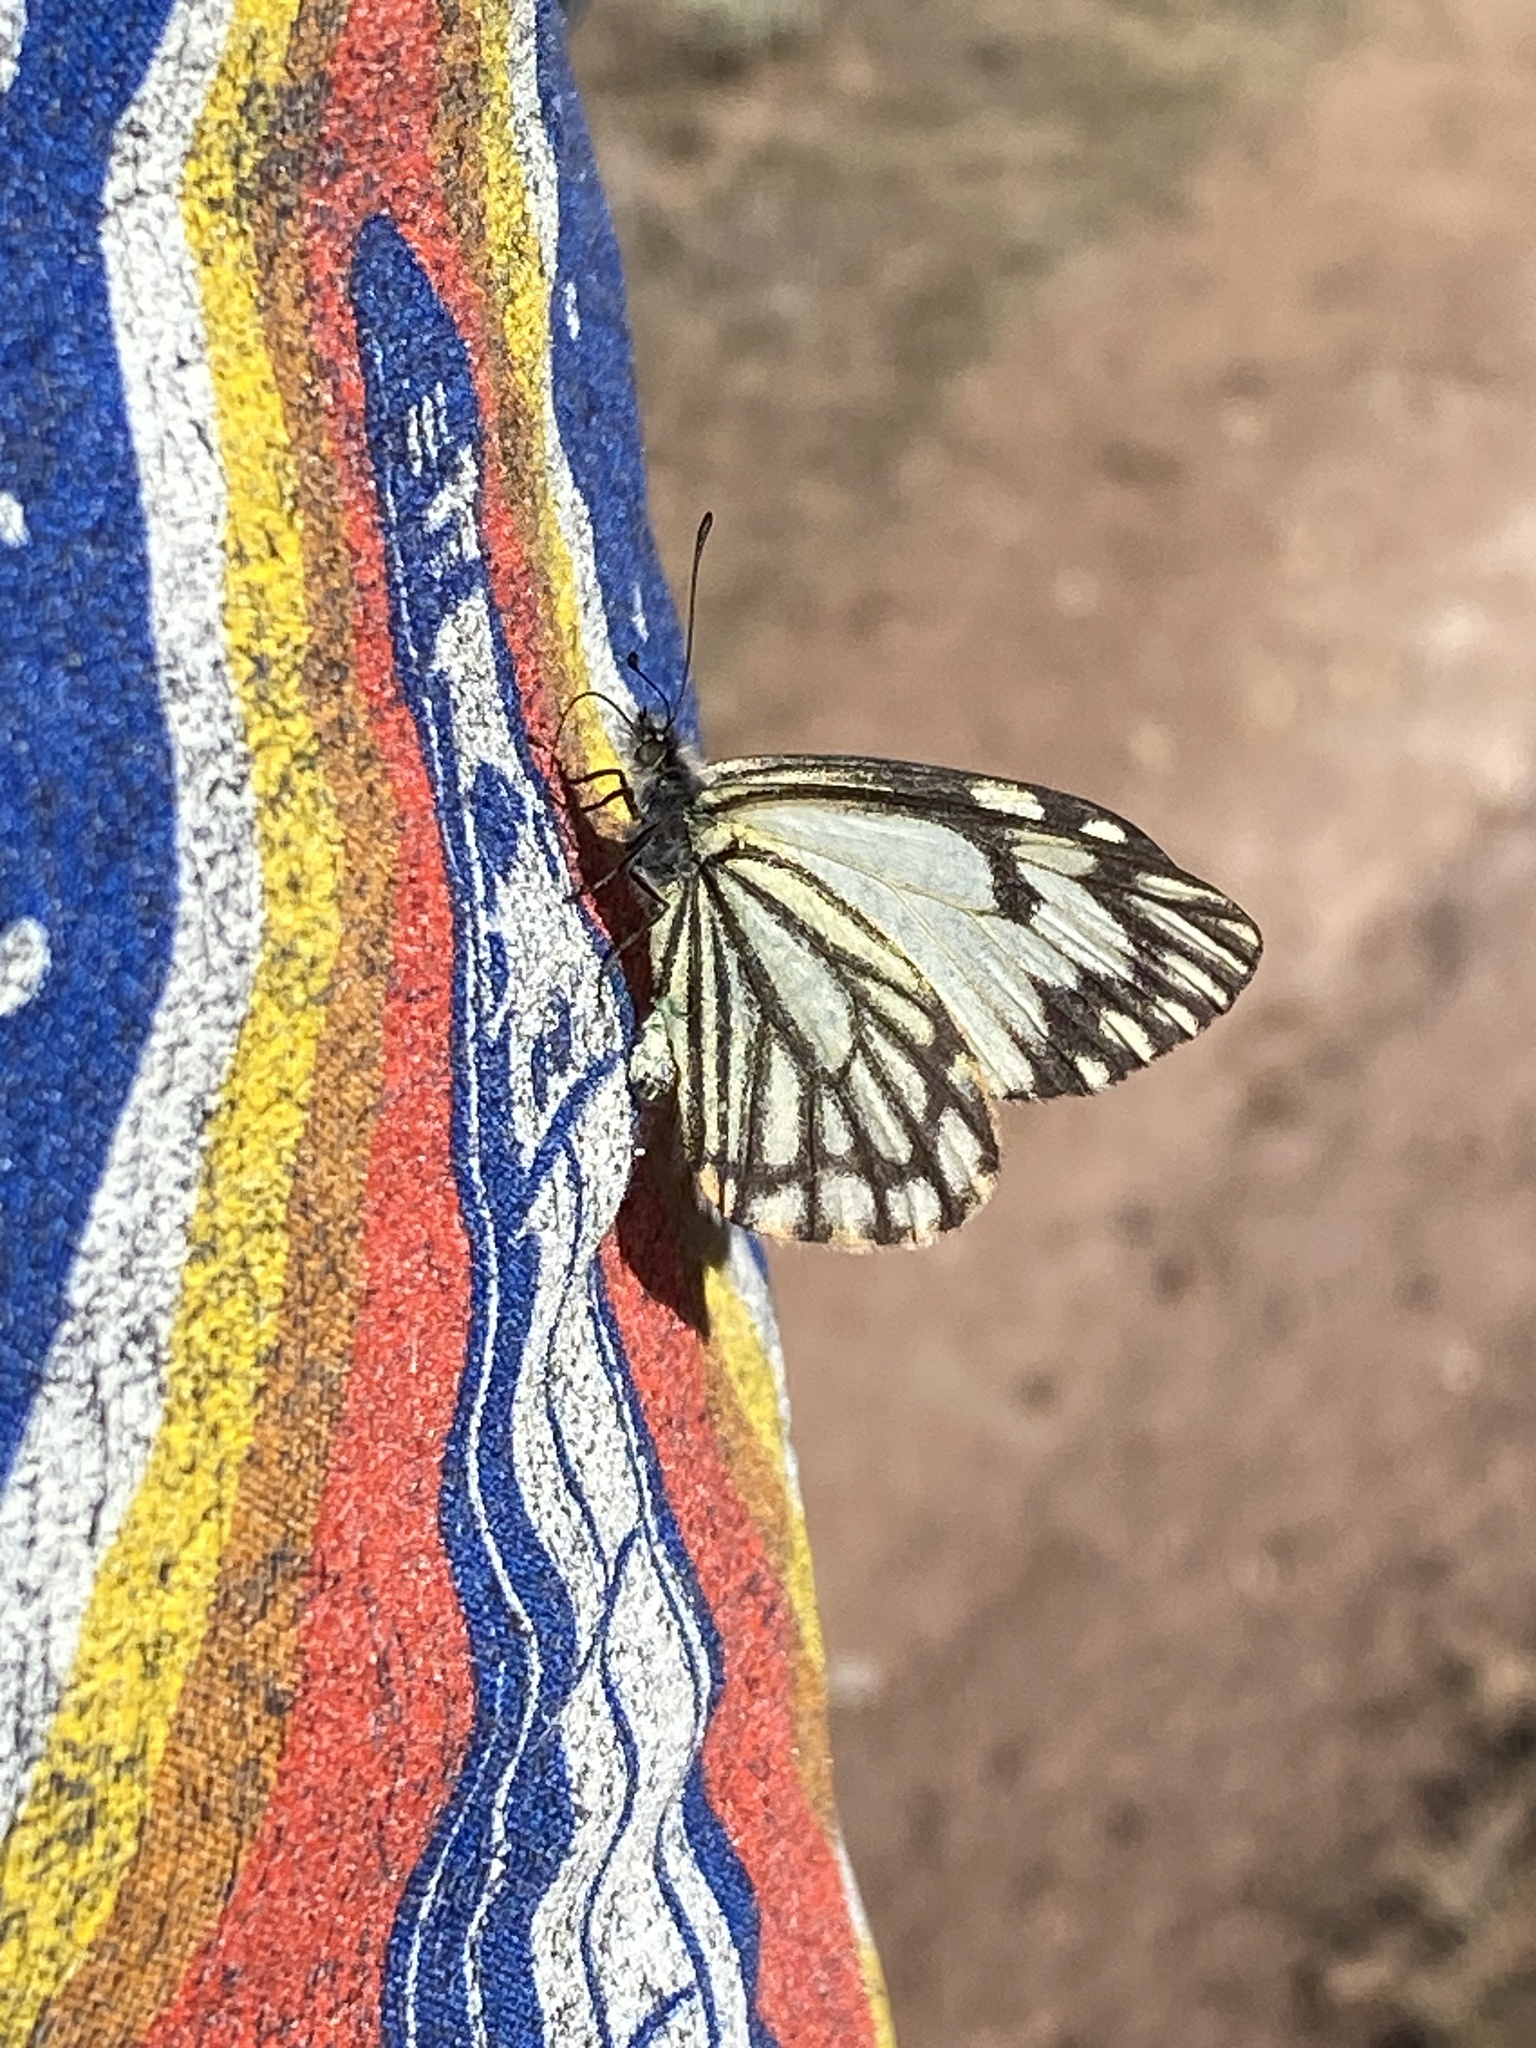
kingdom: Animalia
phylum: Arthropoda
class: Insecta
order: Lepidoptera
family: Pieridae
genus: Neophasia
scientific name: Neophasia menapia
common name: Pine white
